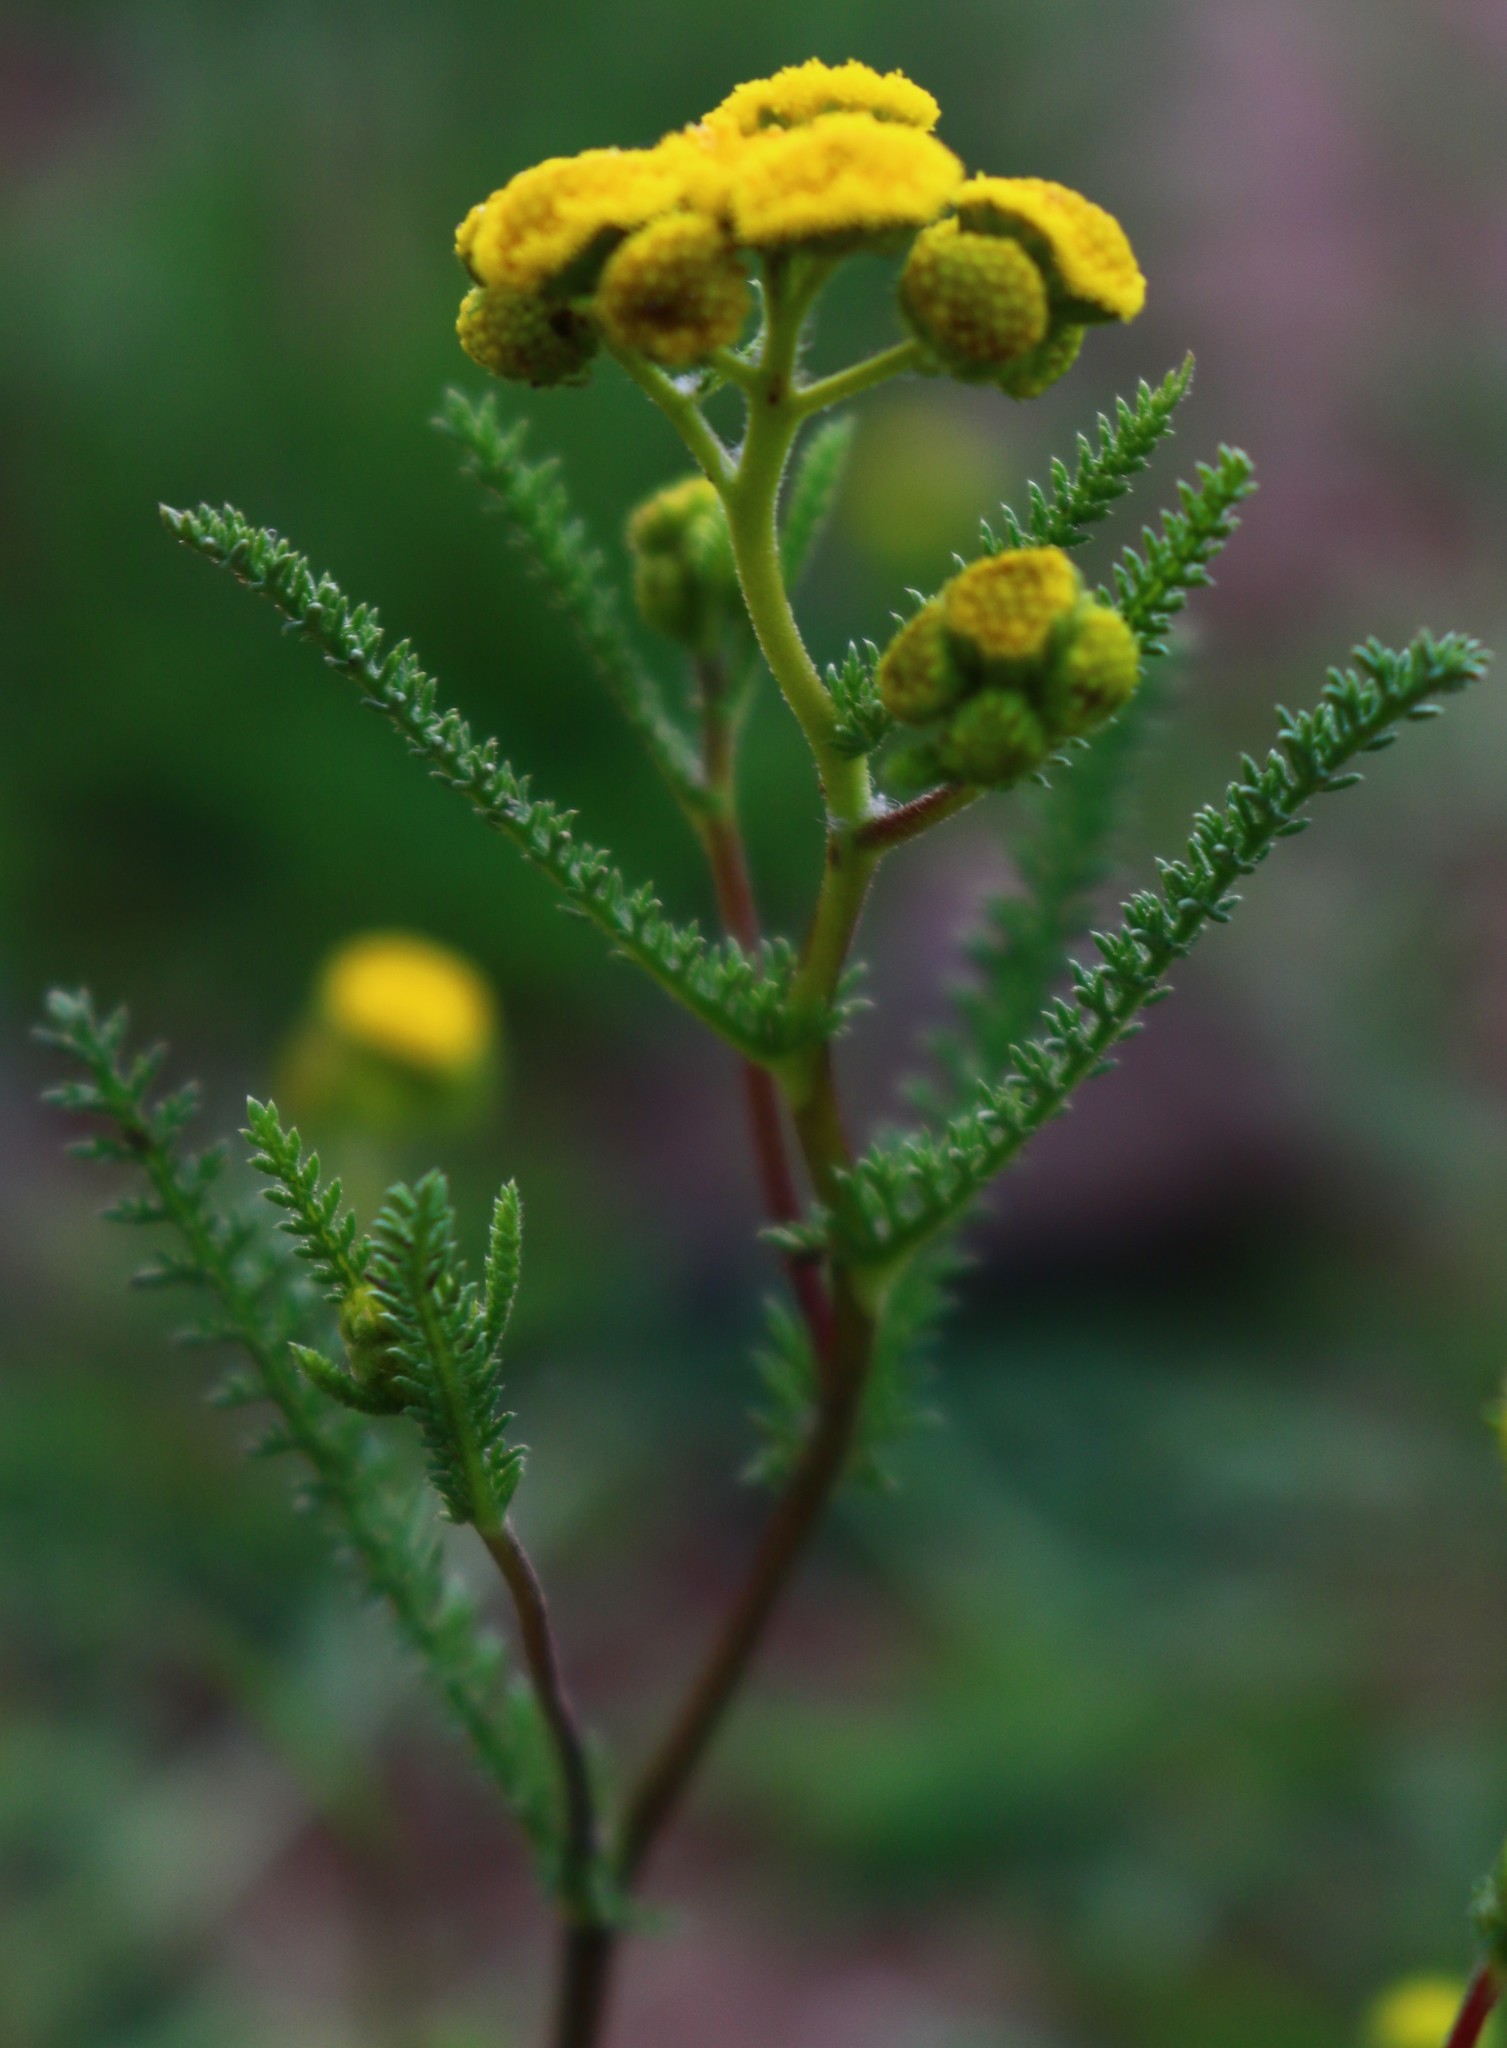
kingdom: Plantae
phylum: Tracheophyta
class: Magnoliopsida
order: Asterales
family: Asteraceae
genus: Cyathocline
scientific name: Cyathocline lutea
